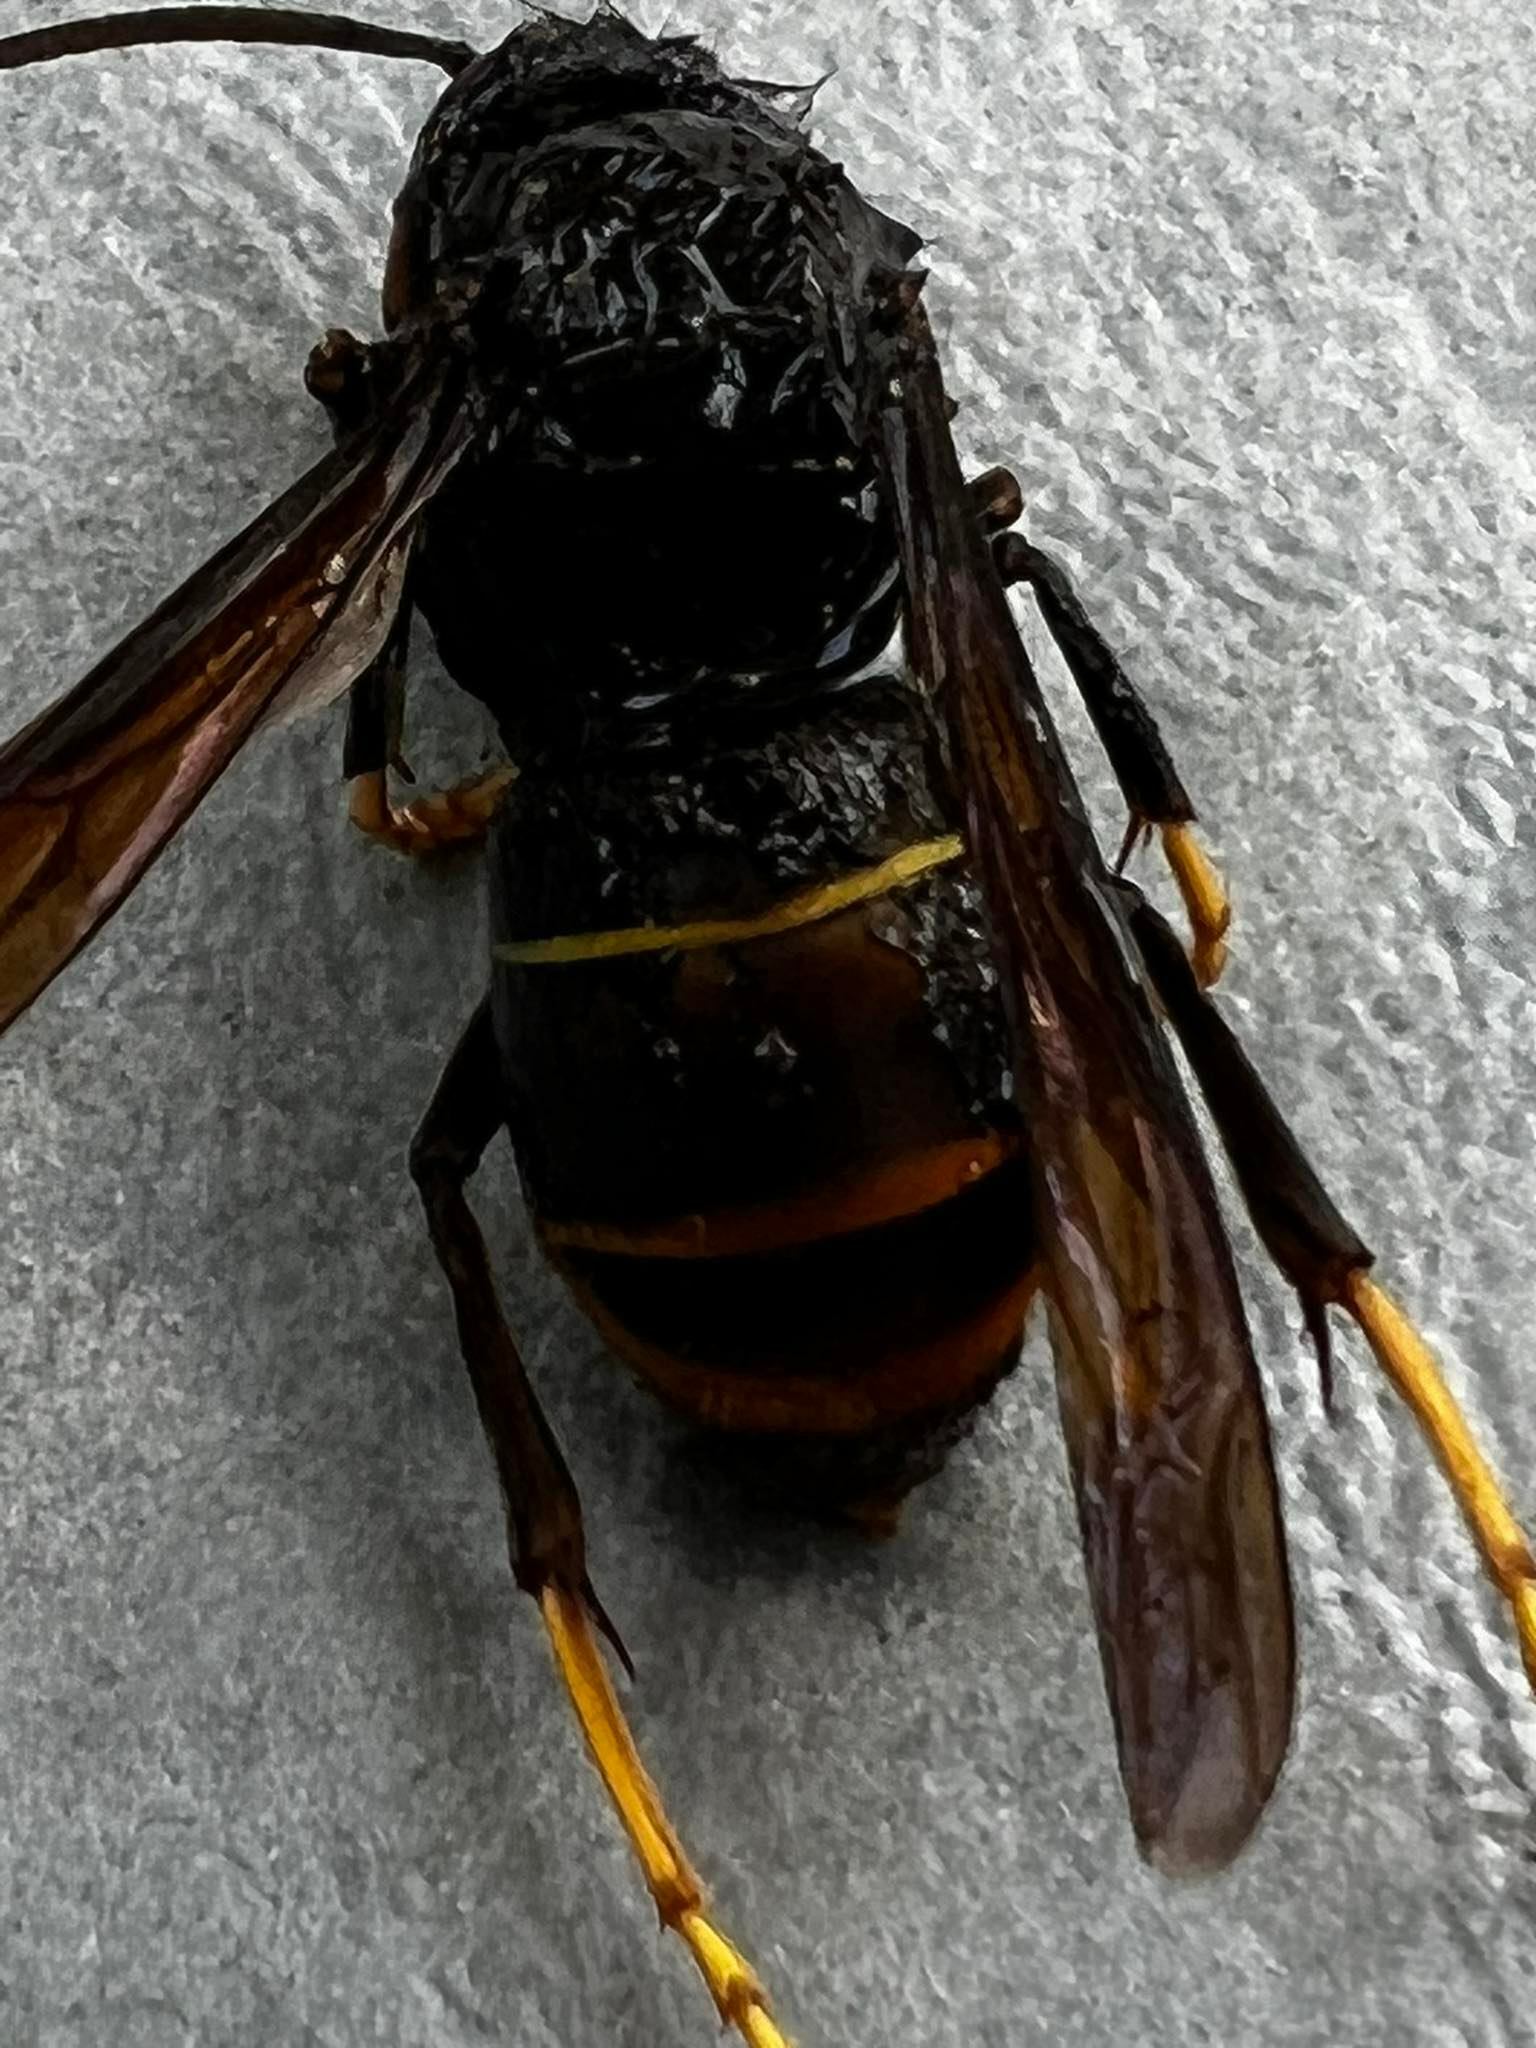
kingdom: Animalia
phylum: Arthropoda
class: Insecta
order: Hymenoptera
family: Vespidae
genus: Vespa
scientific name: Vespa velutina
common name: Asian hornet
